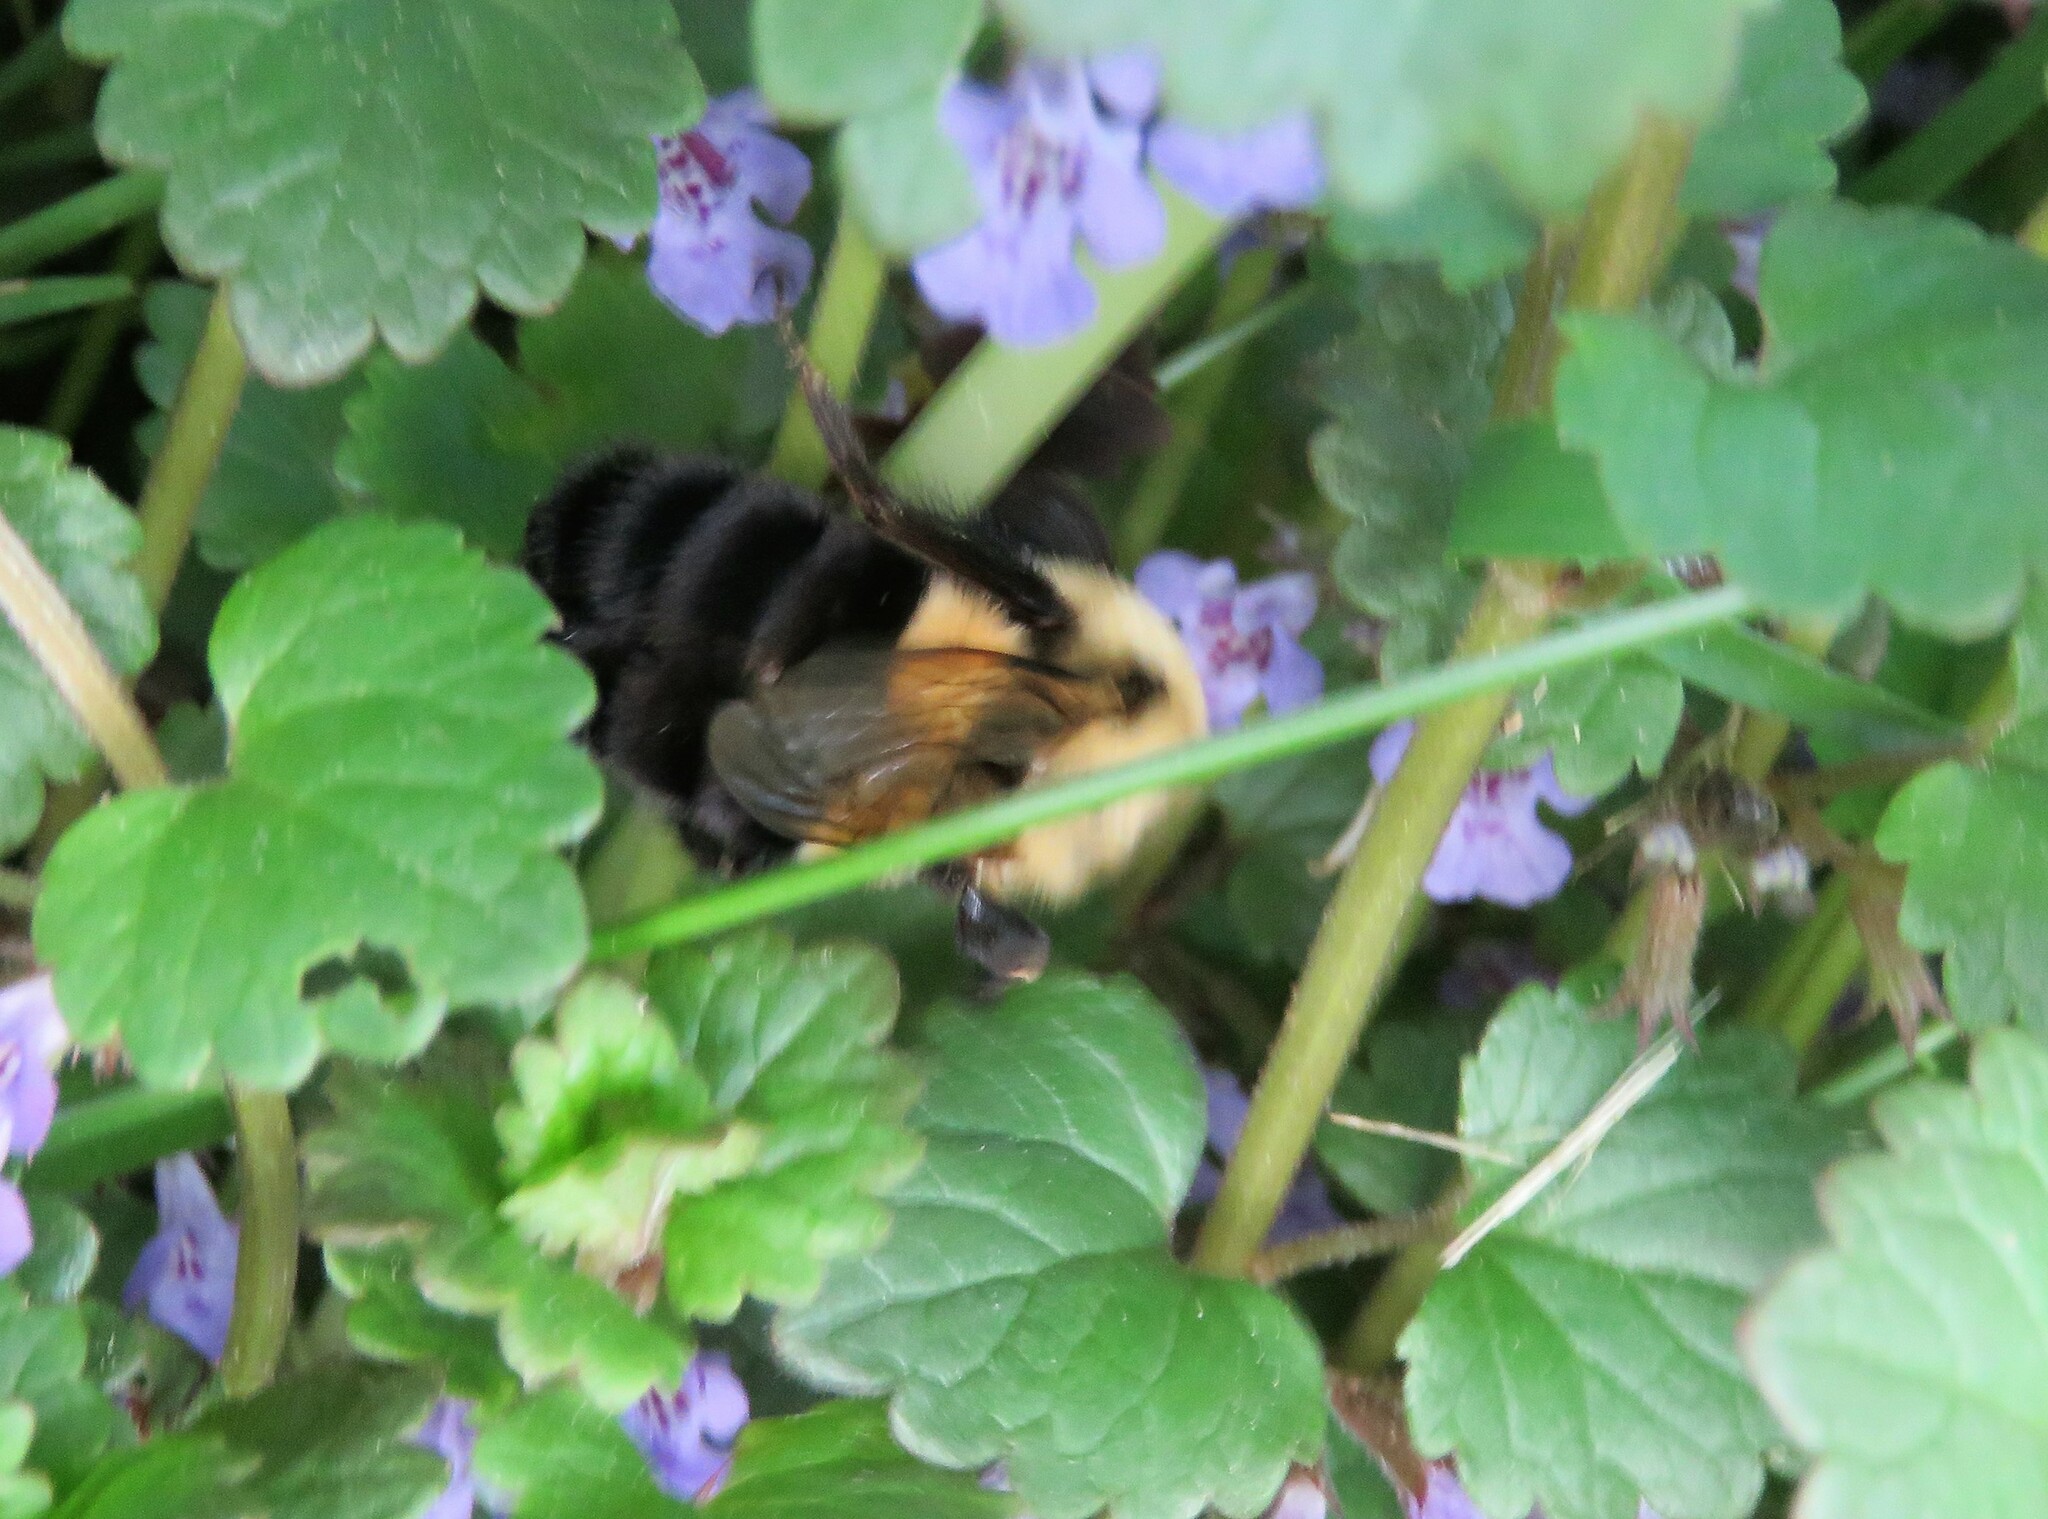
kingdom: Animalia
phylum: Arthropoda
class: Insecta
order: Hymenoptera
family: Apidae
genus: Bombus
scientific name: Bombus impatiens
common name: Common eastern bumble bee
